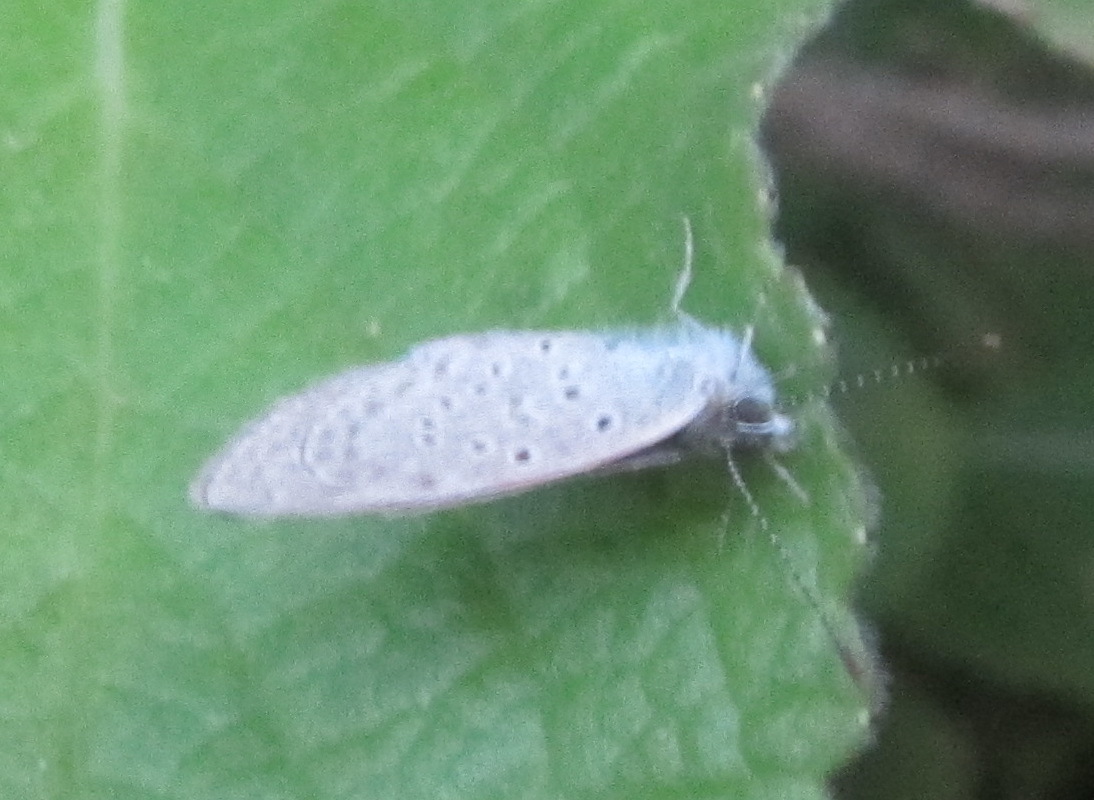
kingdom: Animalia
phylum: Arthropoda
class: Insecta
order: Lepidoptera
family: Lycaenidae
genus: Zizeeria
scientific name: Zizeeria knysna
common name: African grass blue
